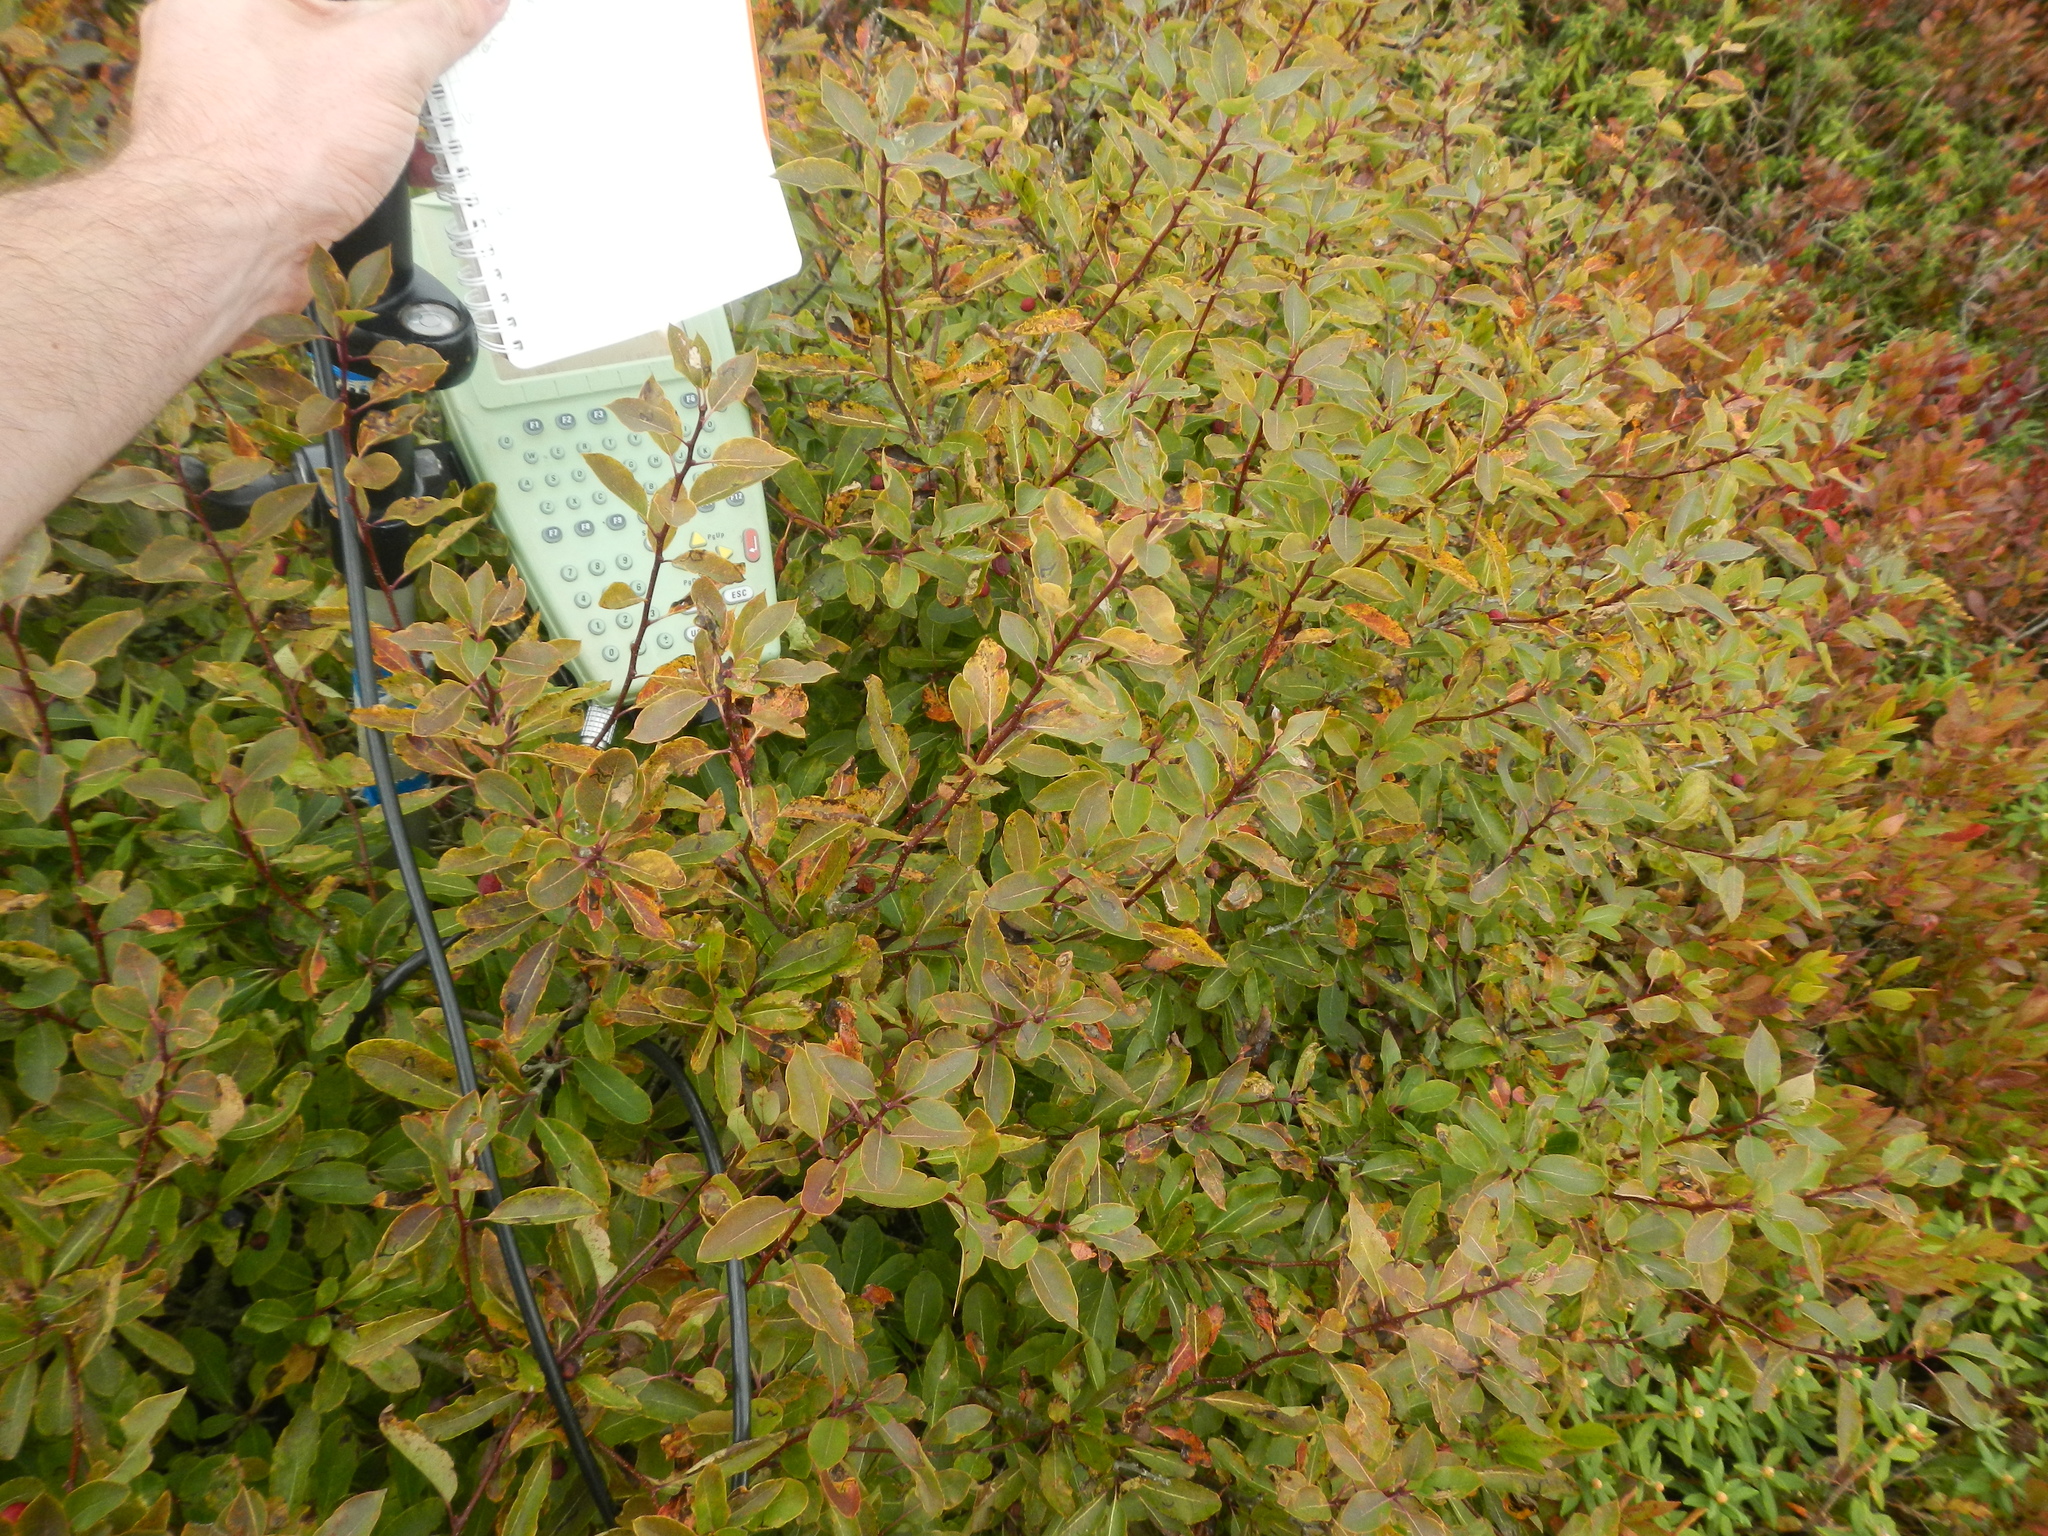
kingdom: Plantae
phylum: Tracheophyta
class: Magnoliopsida
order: Aquifoliales
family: Aquifoliaceae
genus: Ilex
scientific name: Ilex mucronata
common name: Catberry
